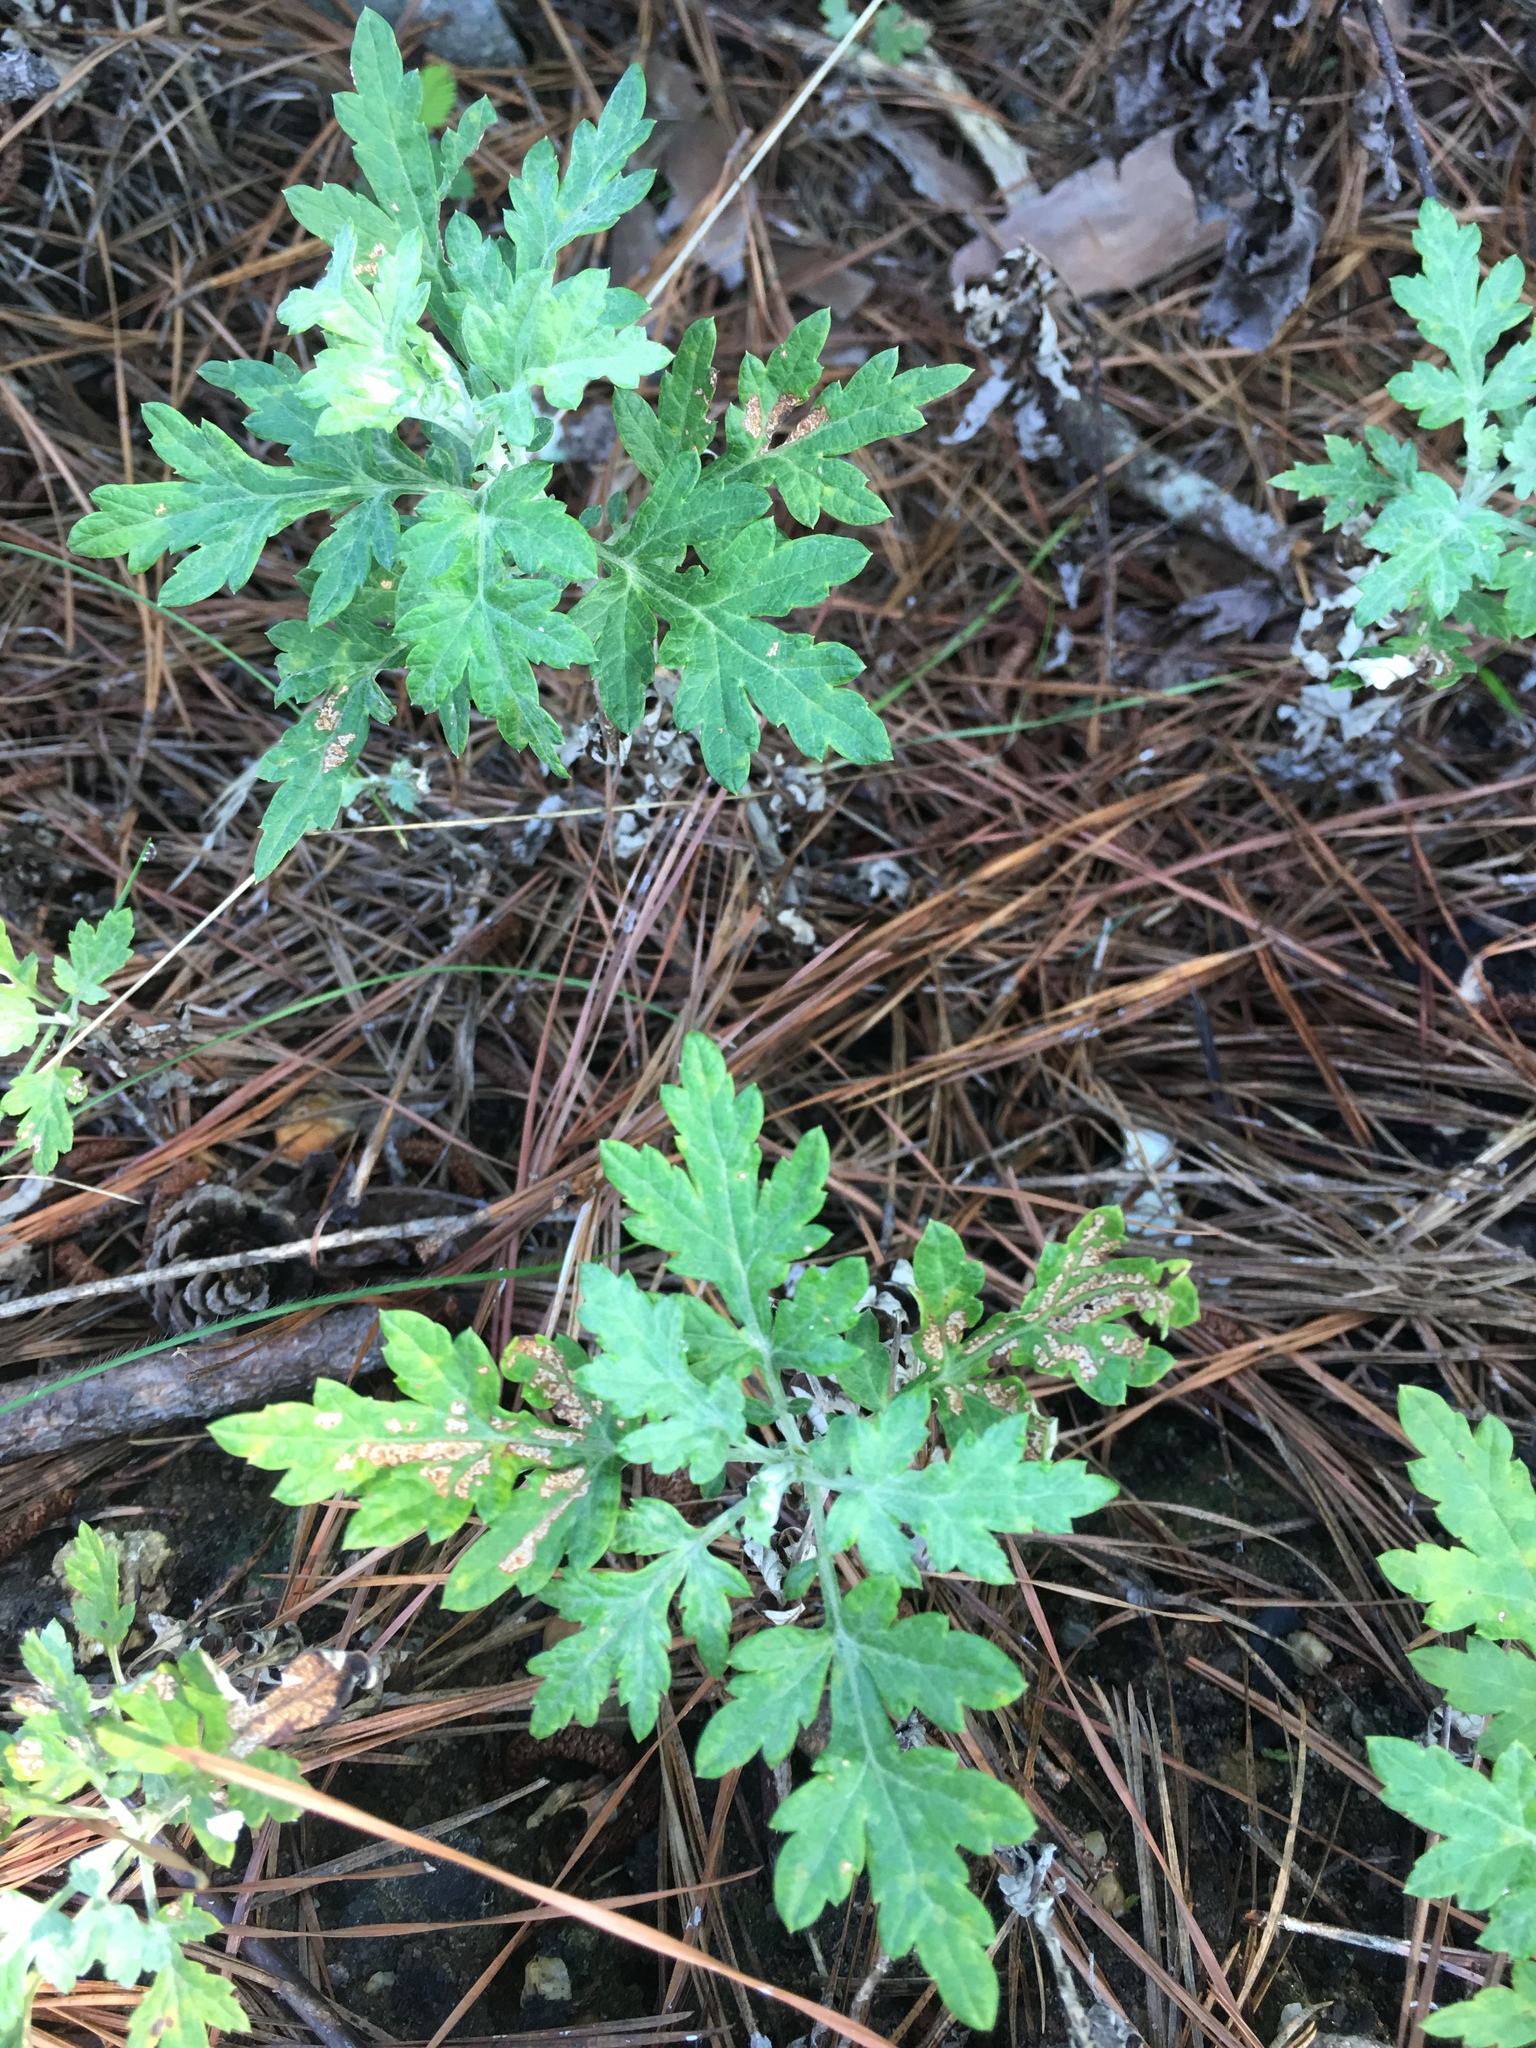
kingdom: Plantae
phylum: Tracheophyta
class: Magnoliopsida
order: Asterales
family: Asteraceae
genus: Artemisia
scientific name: Artemisia vulgaris
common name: Mugwort
